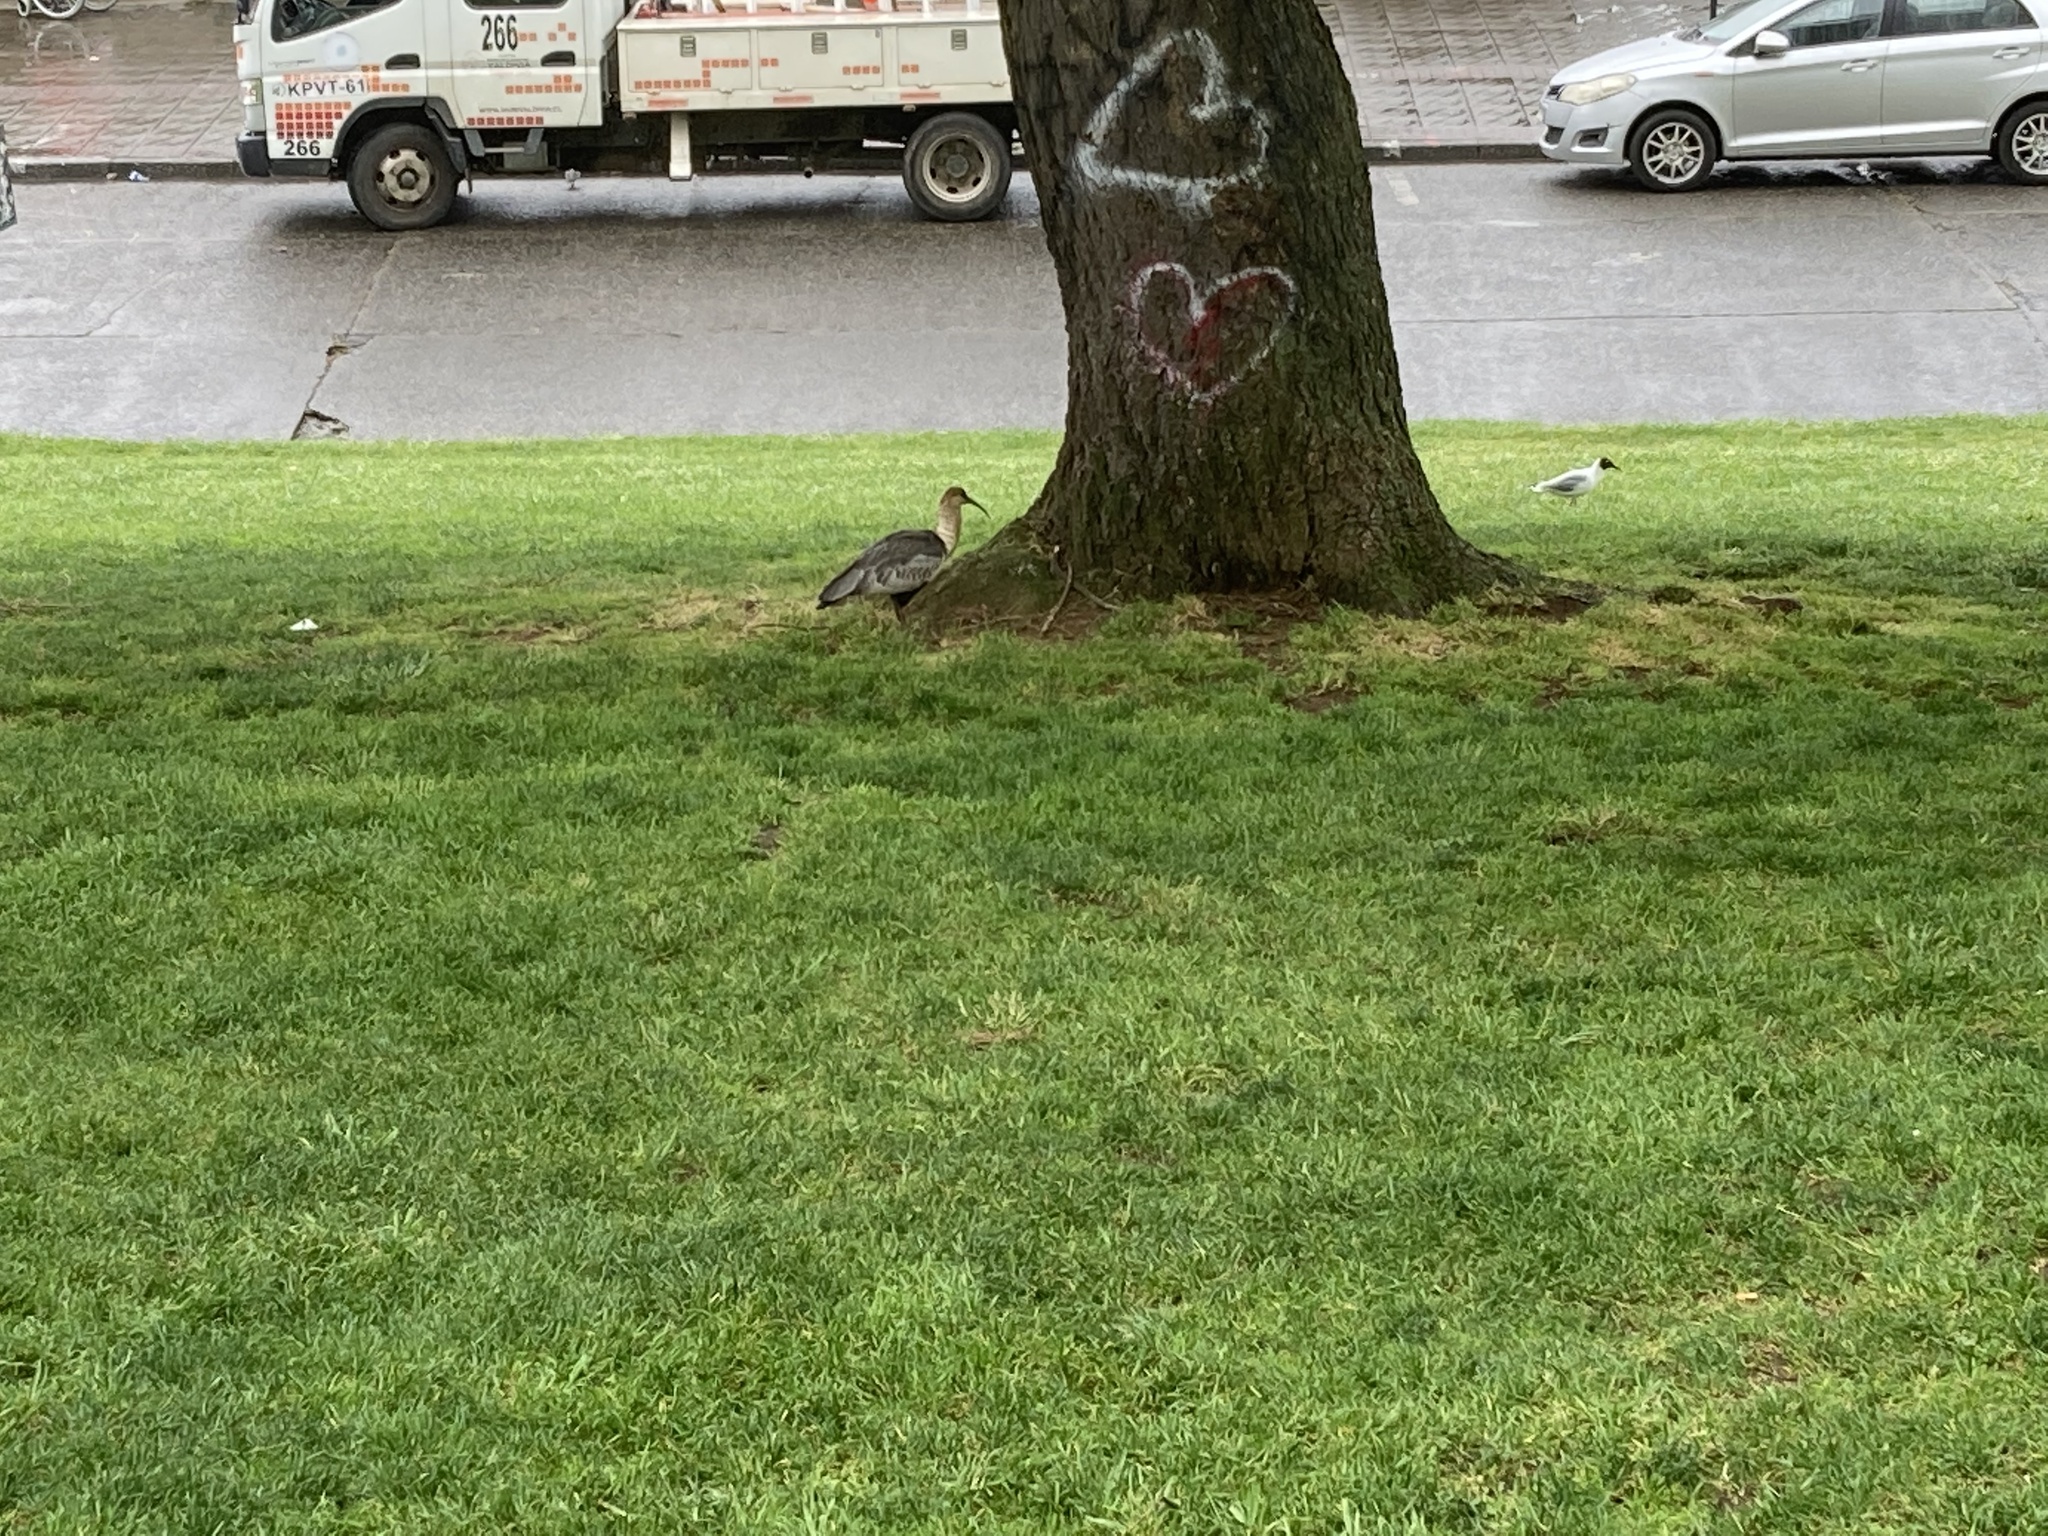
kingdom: Animalia
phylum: Chordata
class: Aves
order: Pelecaniformes
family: Threskiornithidae
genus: Theristicus
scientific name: Theristicus melanopis
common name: Black-faced ibis
